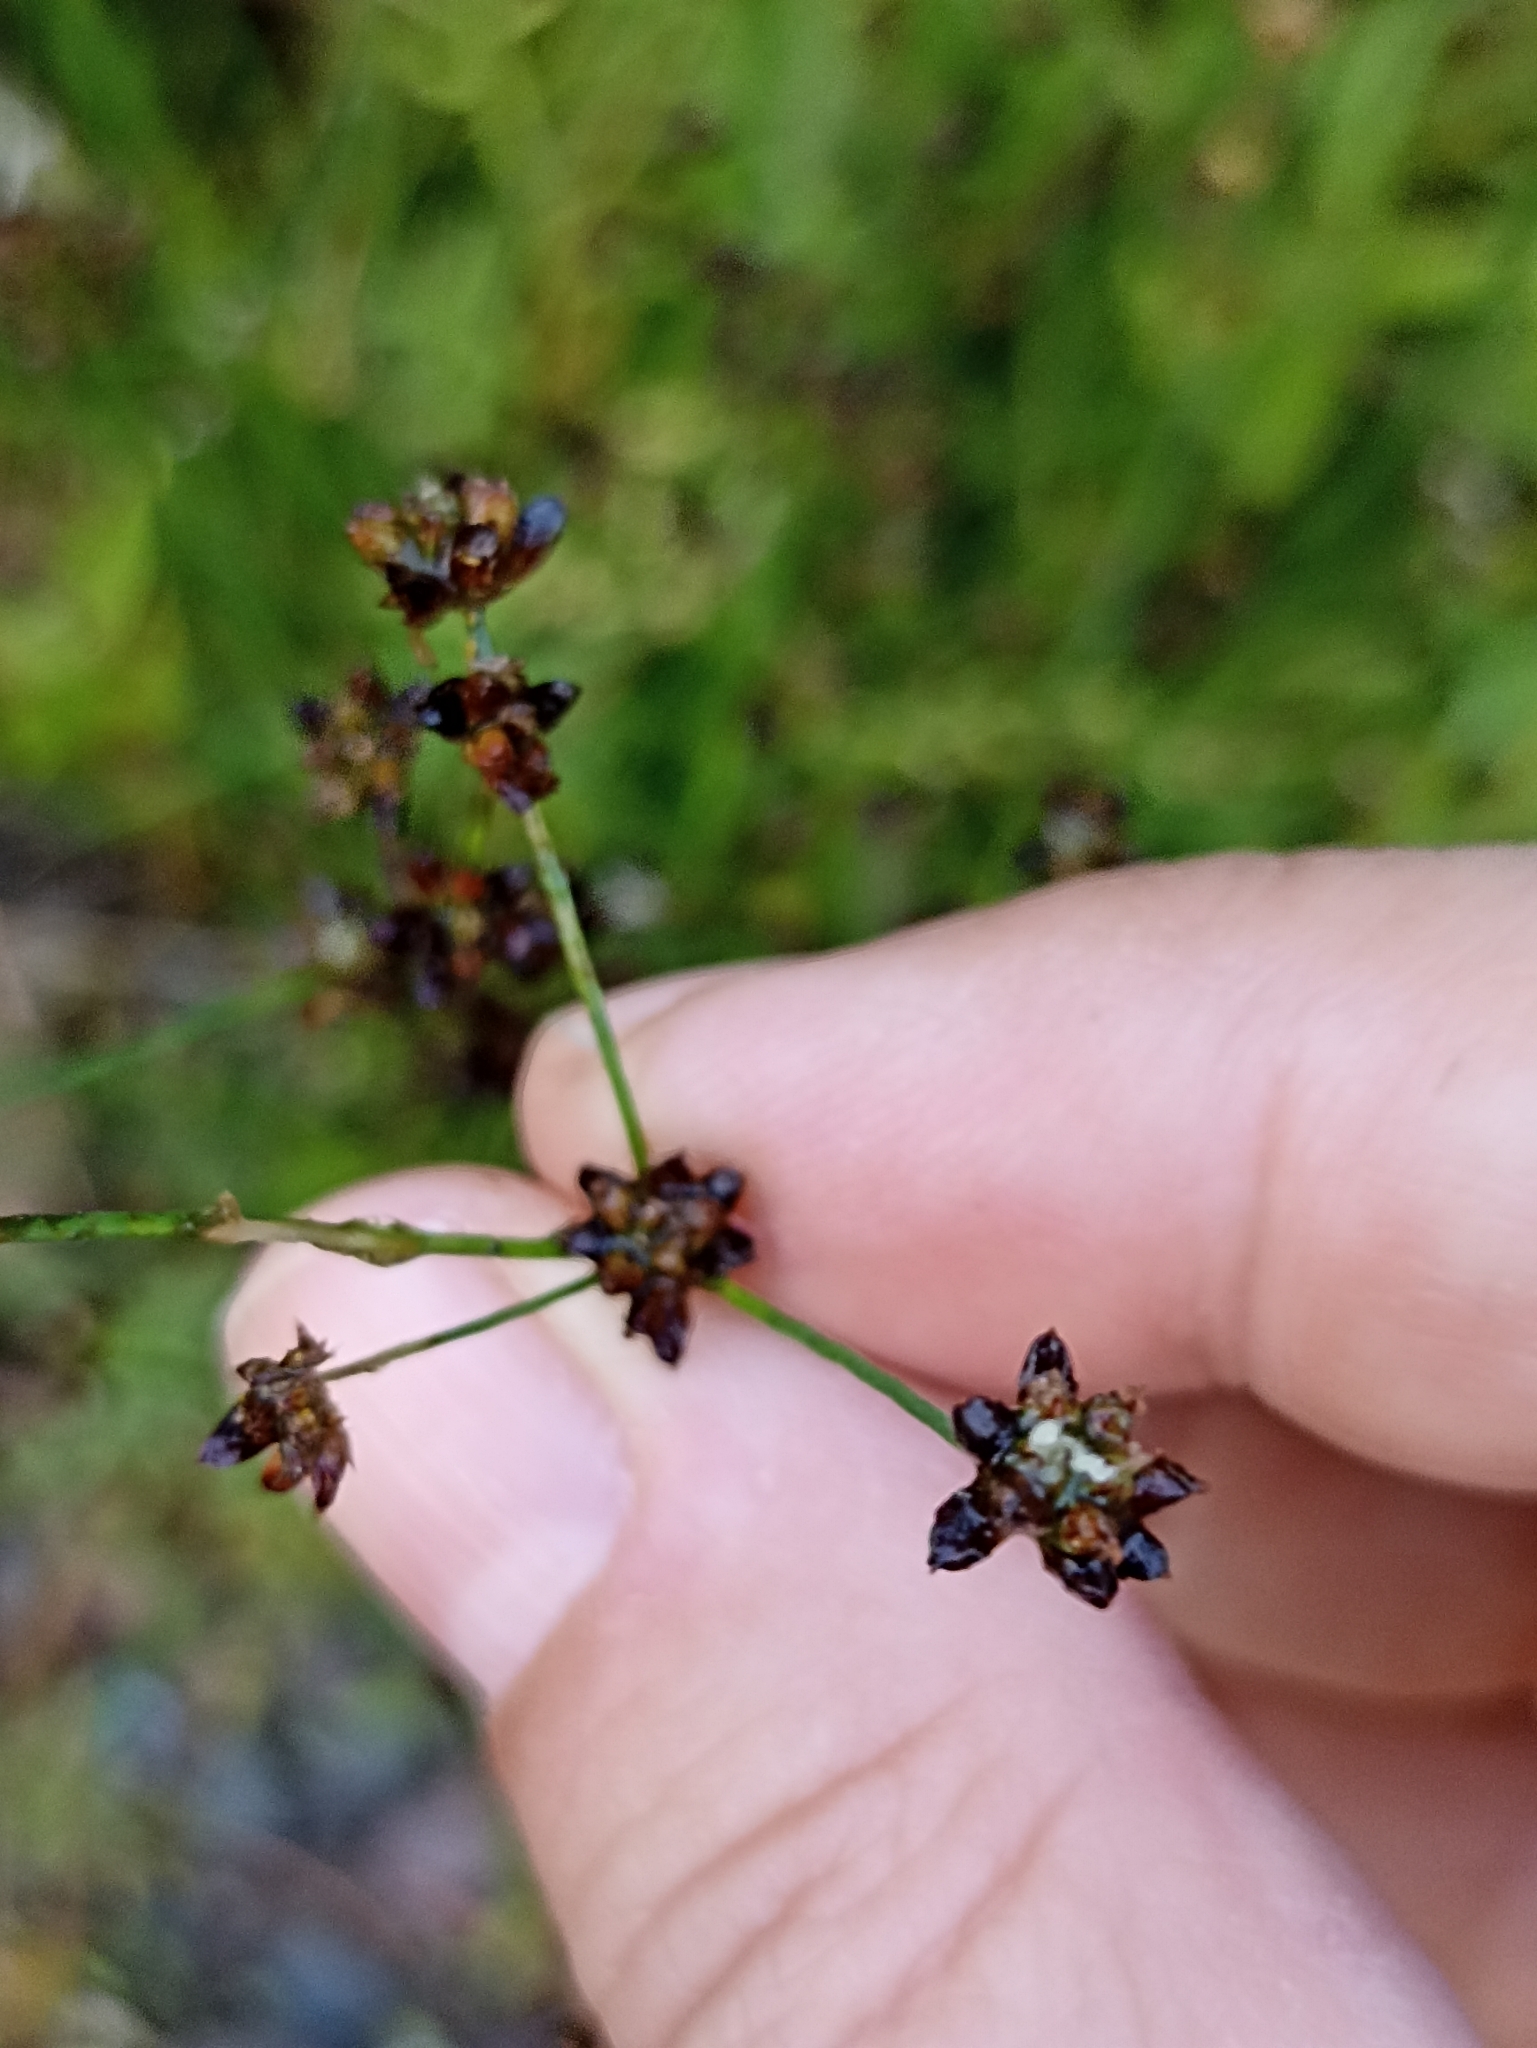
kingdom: Plantae
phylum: Tracheophyta
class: Liliopsida
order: Poales
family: Juncaceae
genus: Juncus
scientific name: Juncus alpinoarticulatus
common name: Alpine rush
